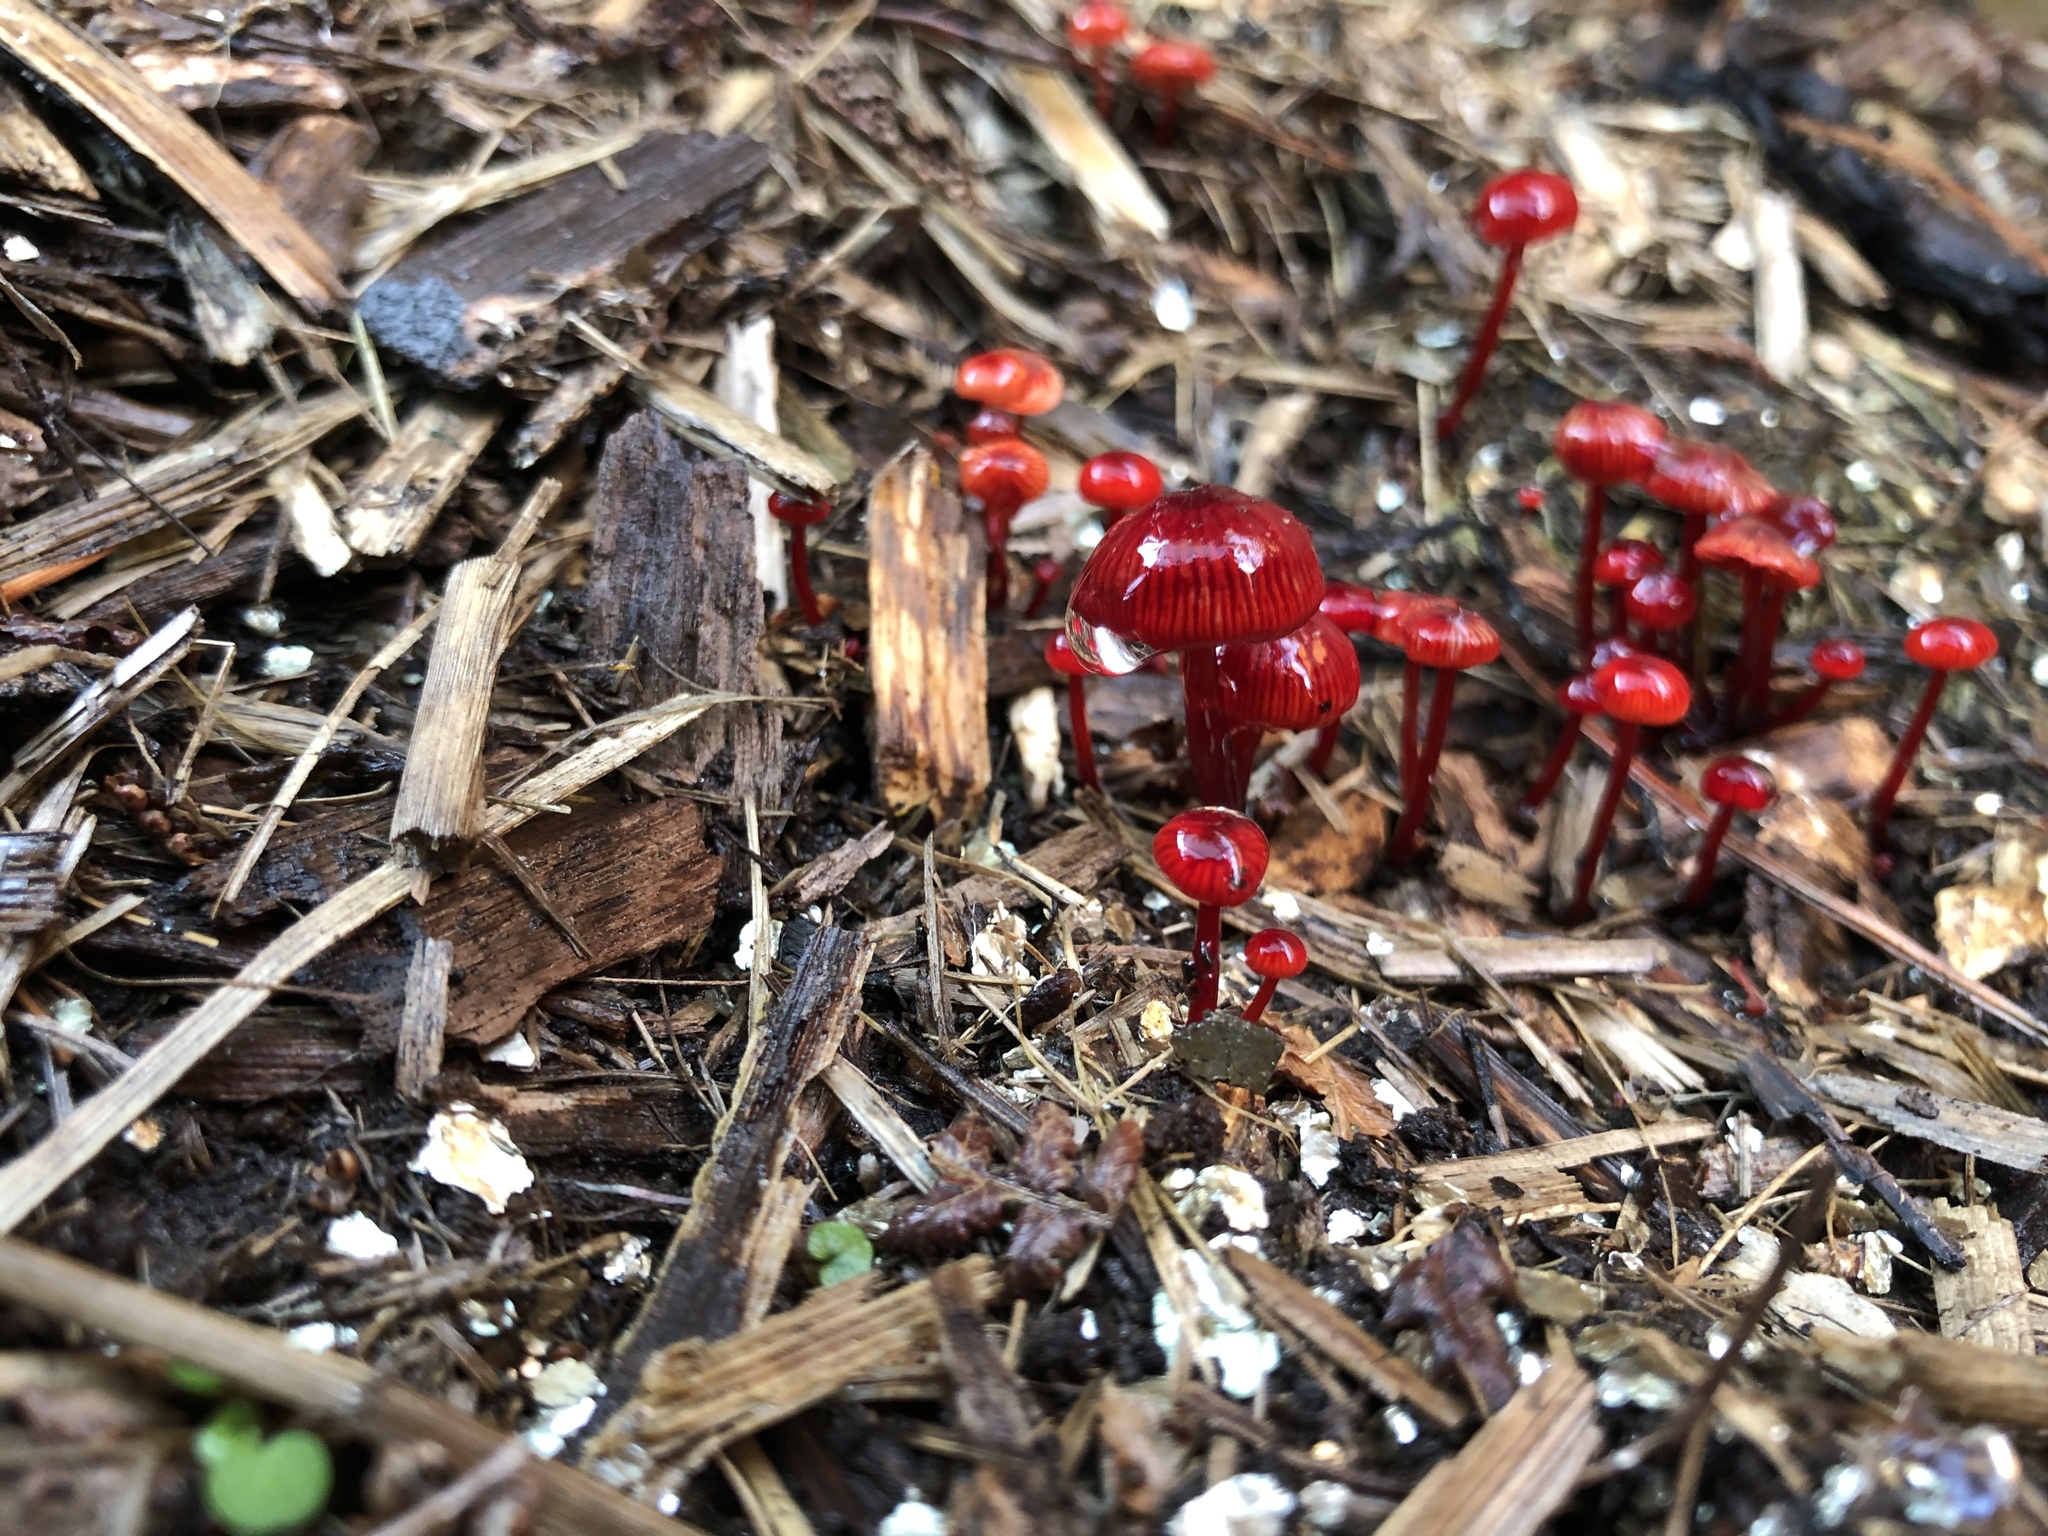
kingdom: Fungi
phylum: Basidiomycota
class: Agaricomycetes
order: Agaricales
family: Mycenaceae
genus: Cruentomycena
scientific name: Cruentomycena viscidocruenta
